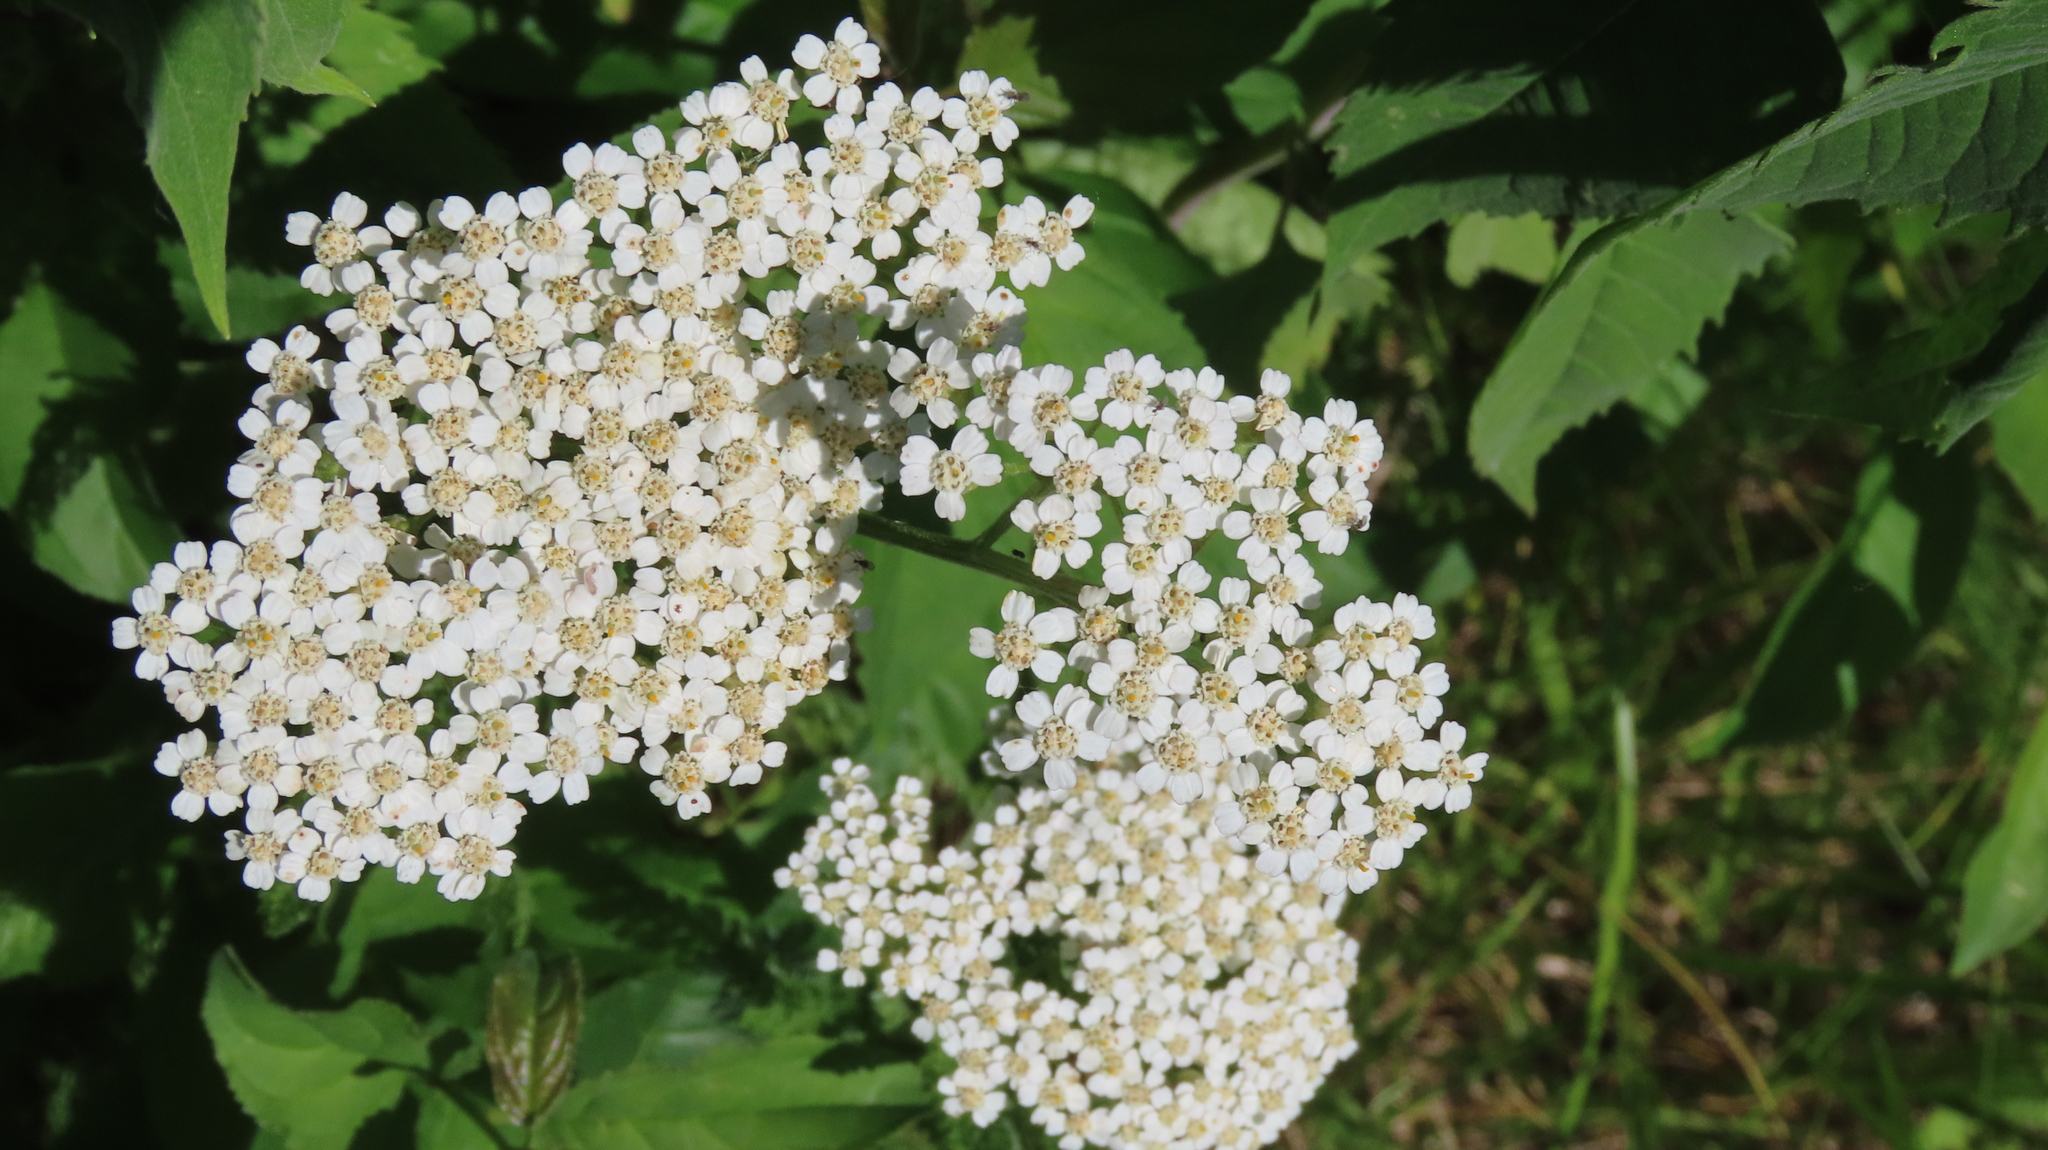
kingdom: Plantae
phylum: Tracheophyta
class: Magnoliopsida
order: Asterales
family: Asteraceae
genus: Achillea
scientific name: Achillea millefolium
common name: Yarrow
